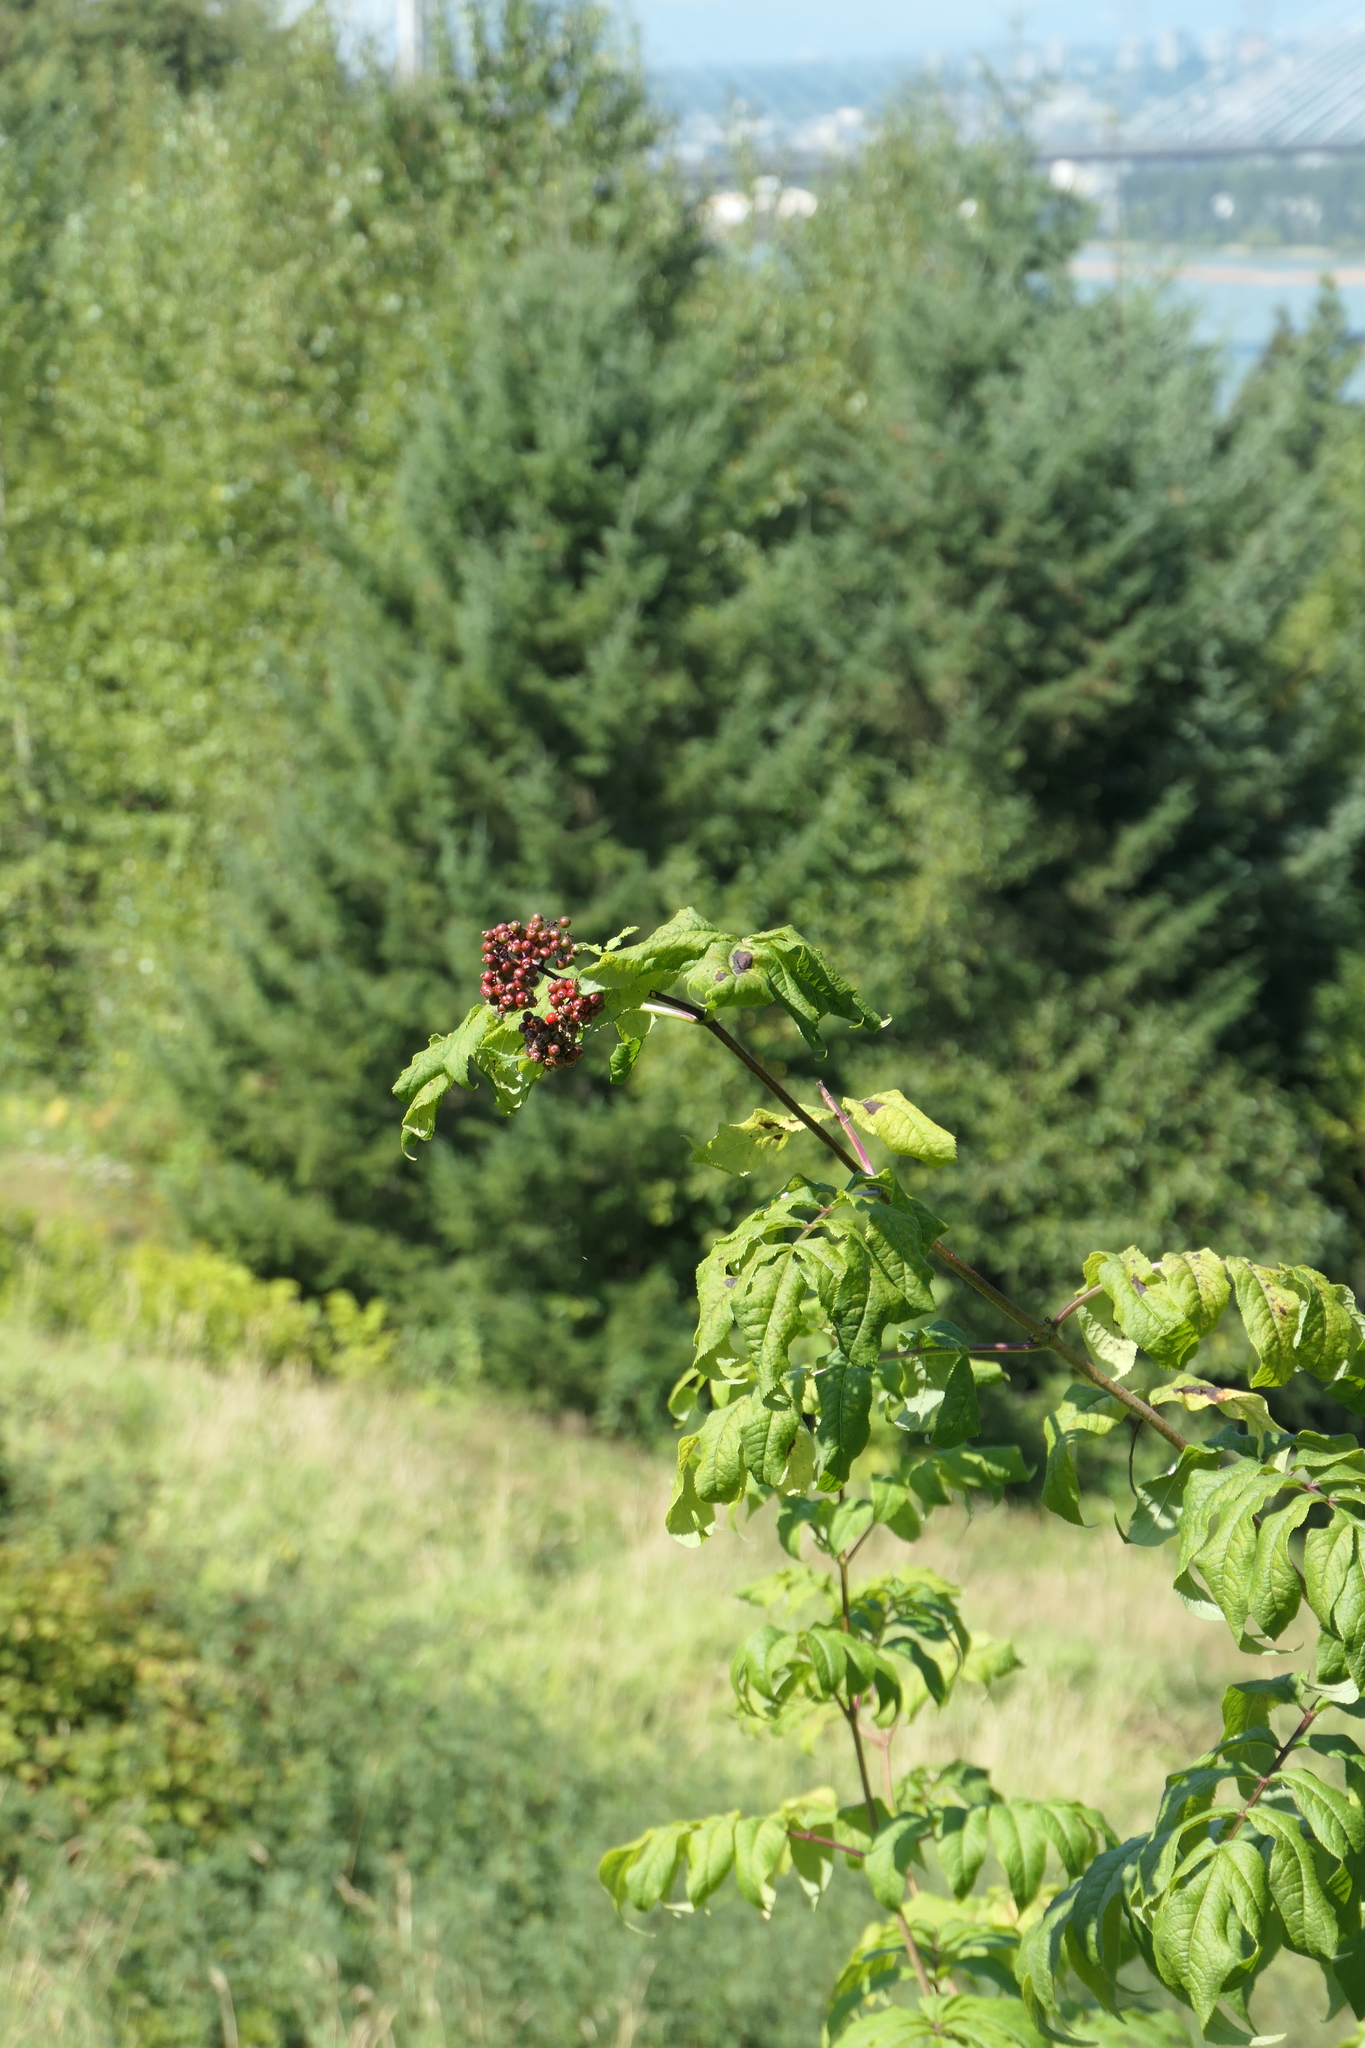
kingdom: Plantae
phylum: Tracheophyta
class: Magnoliopsida
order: Dipsacales
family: Viburnaceae
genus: Sambucus
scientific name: Sambucus racemosa
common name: Red-berried elder
